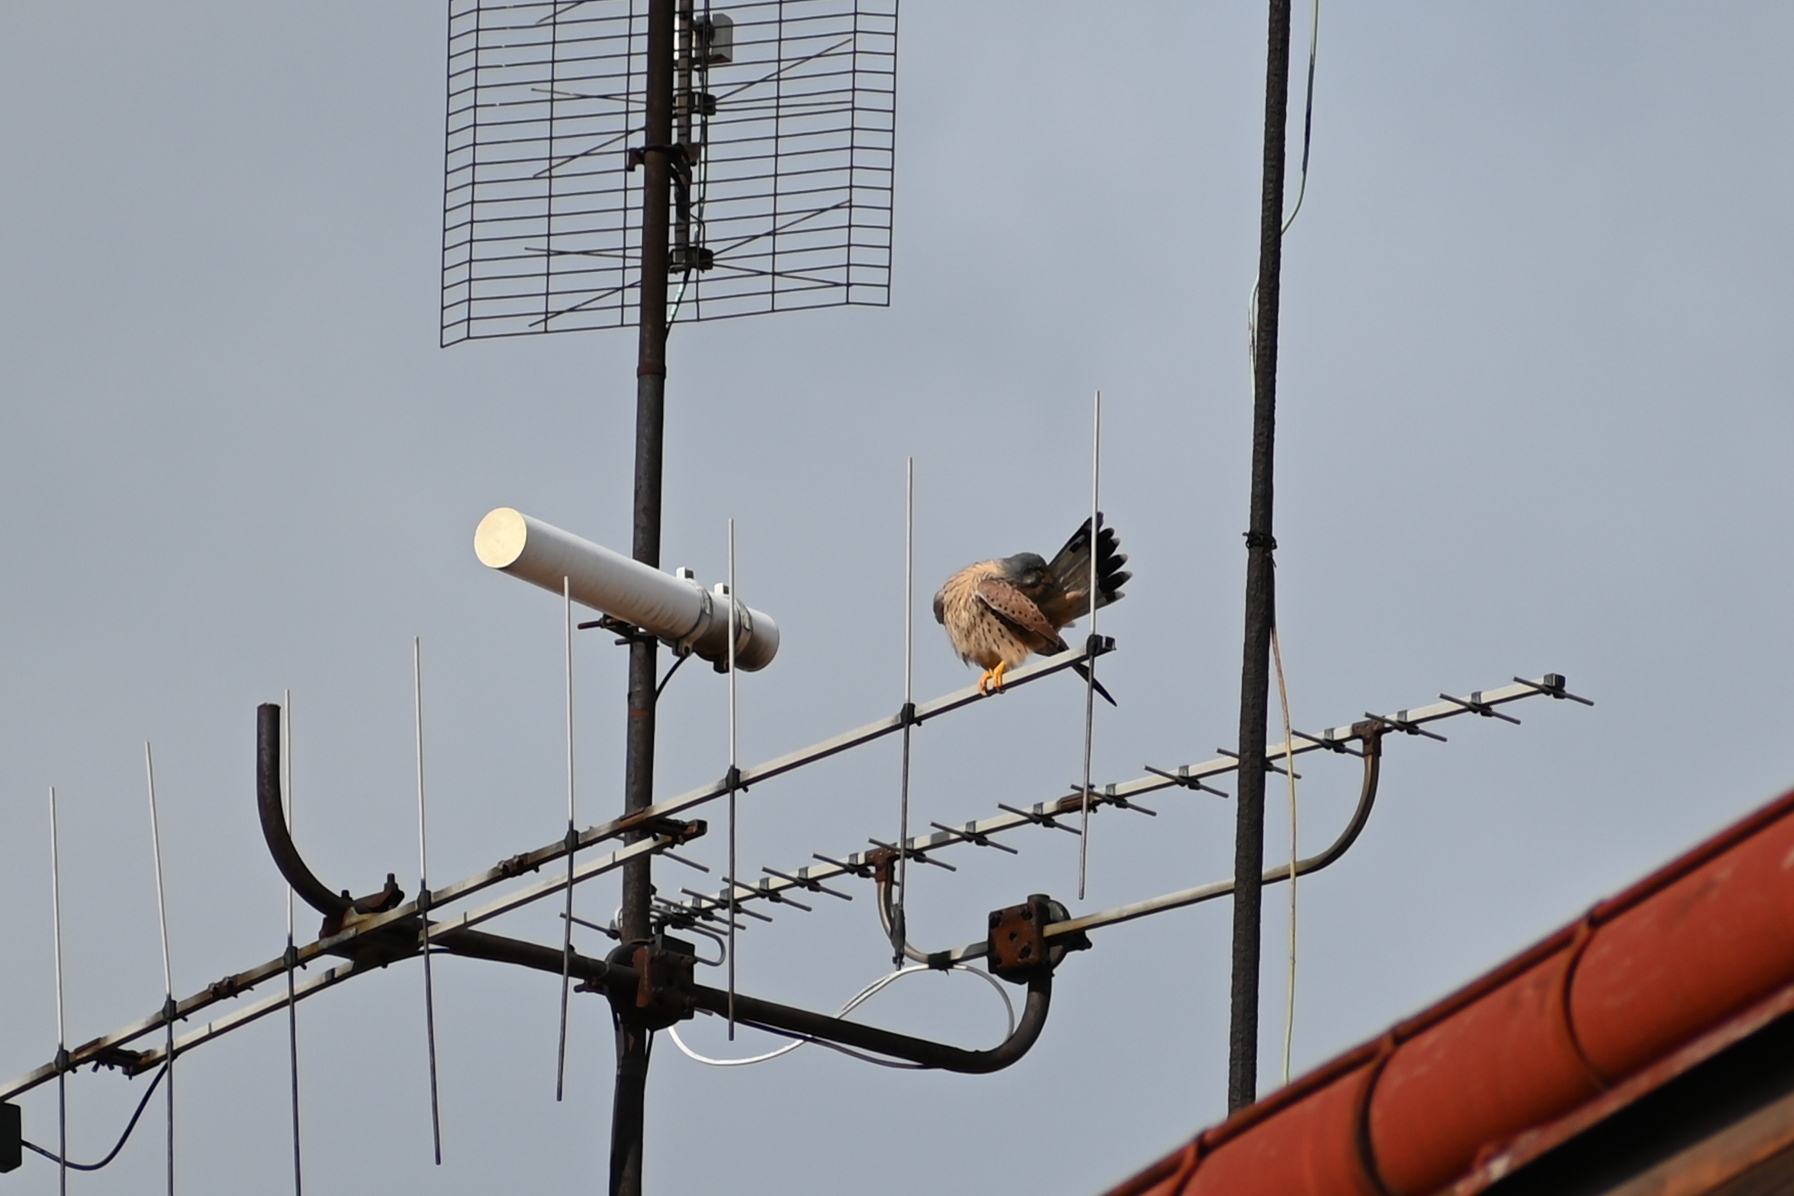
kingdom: Animalia
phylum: Chordata
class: Aves
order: Falconiformes
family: Falconidae
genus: Falco
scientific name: Falco tinnunculus
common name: Common kestrel
